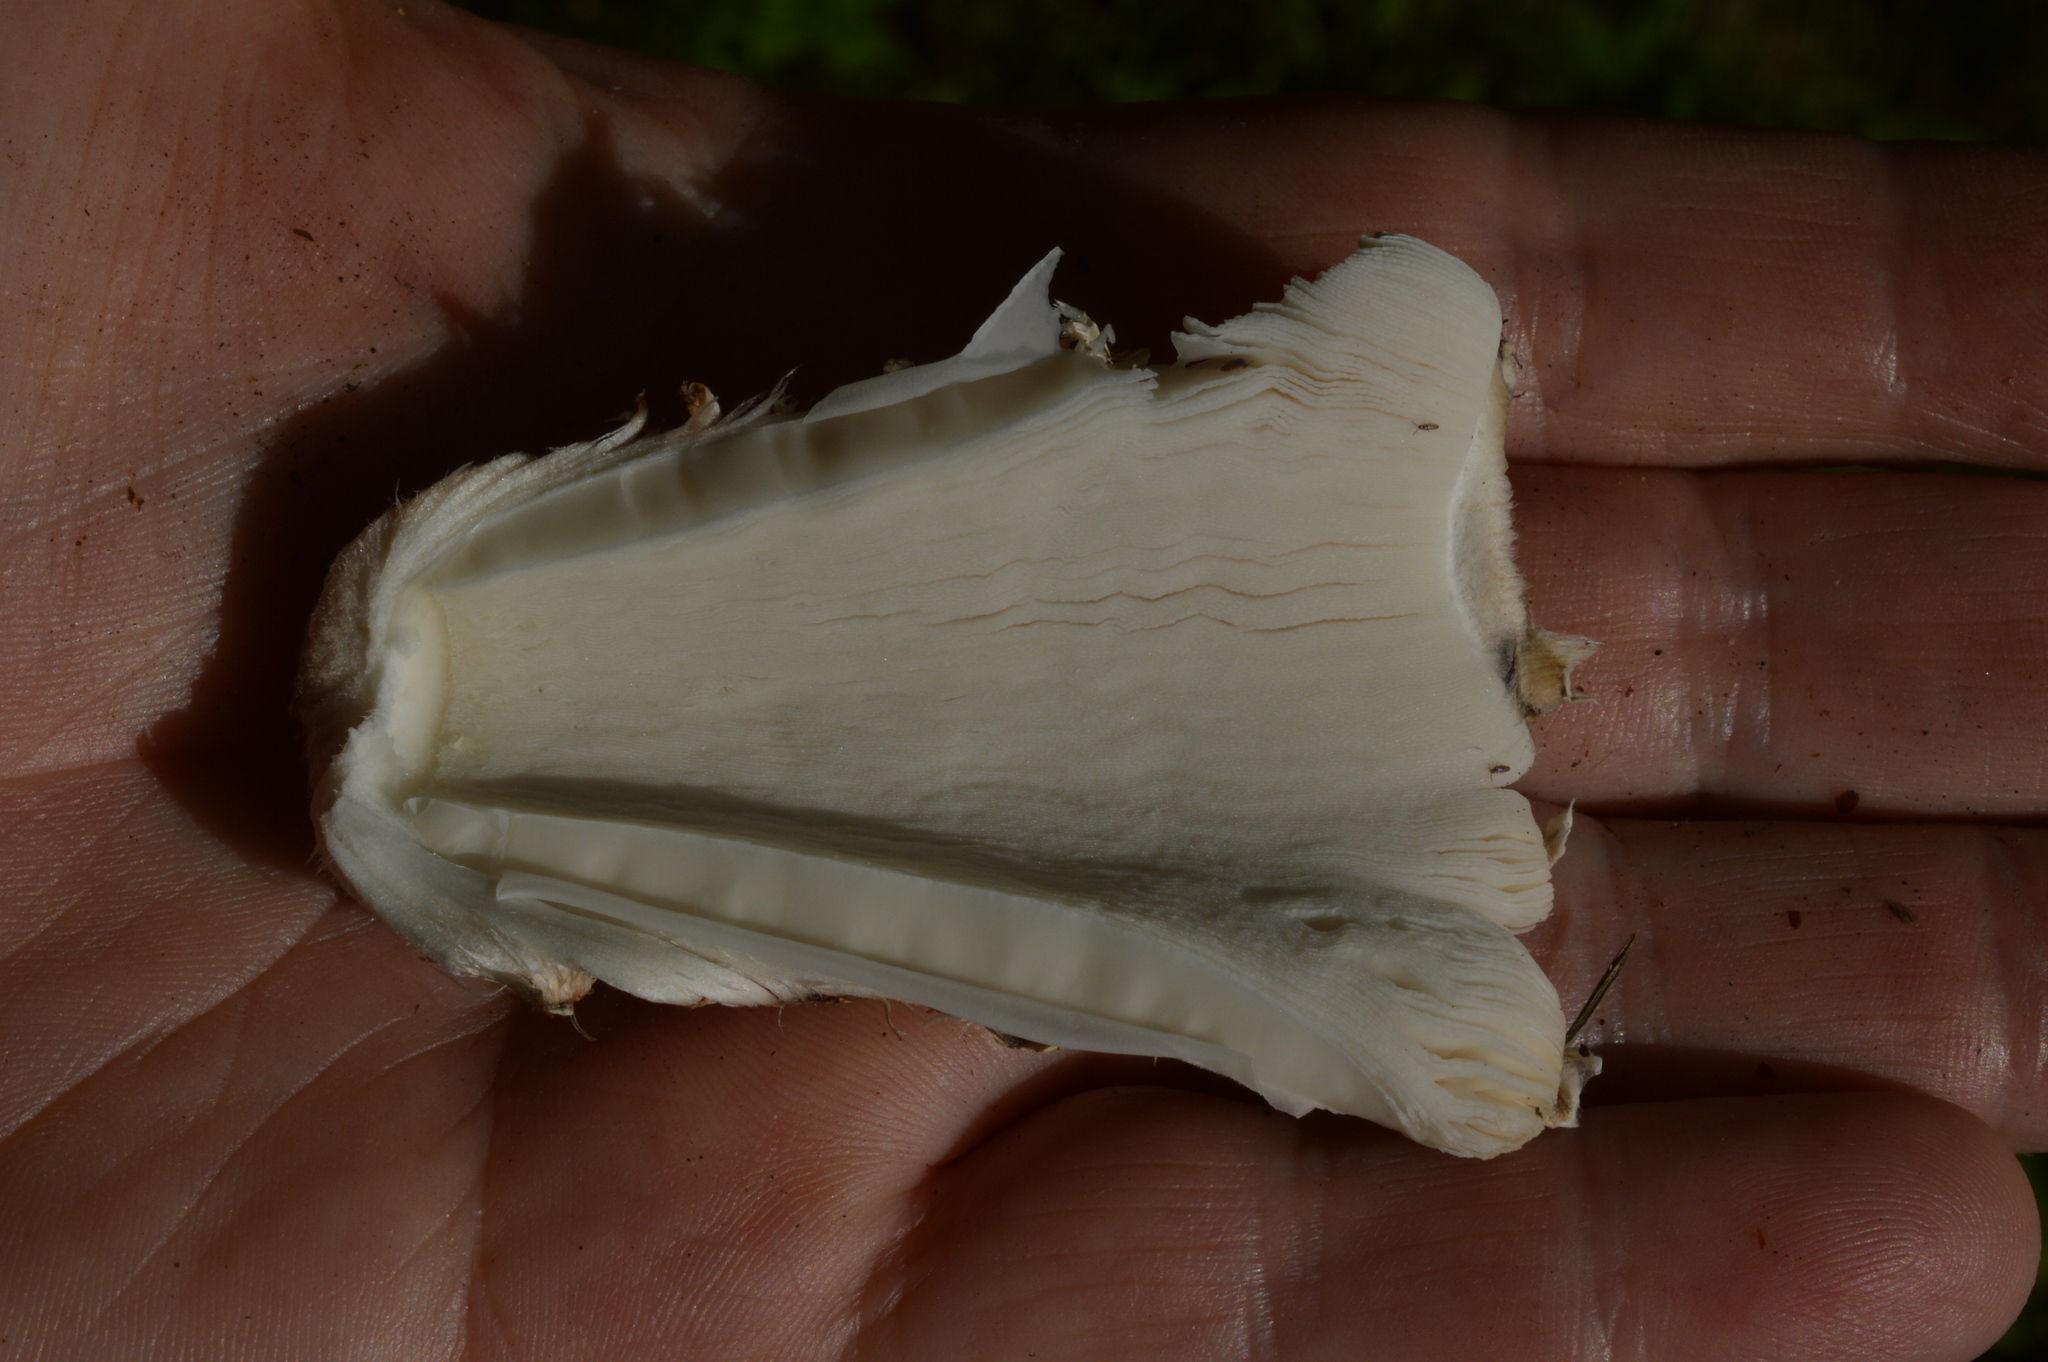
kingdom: Fungi
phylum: Basidiomycota
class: Agaricomycetes
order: Agaricales
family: Agaricaceae
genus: Coprinus
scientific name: Coprinus comatus
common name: Lawyer's wig
